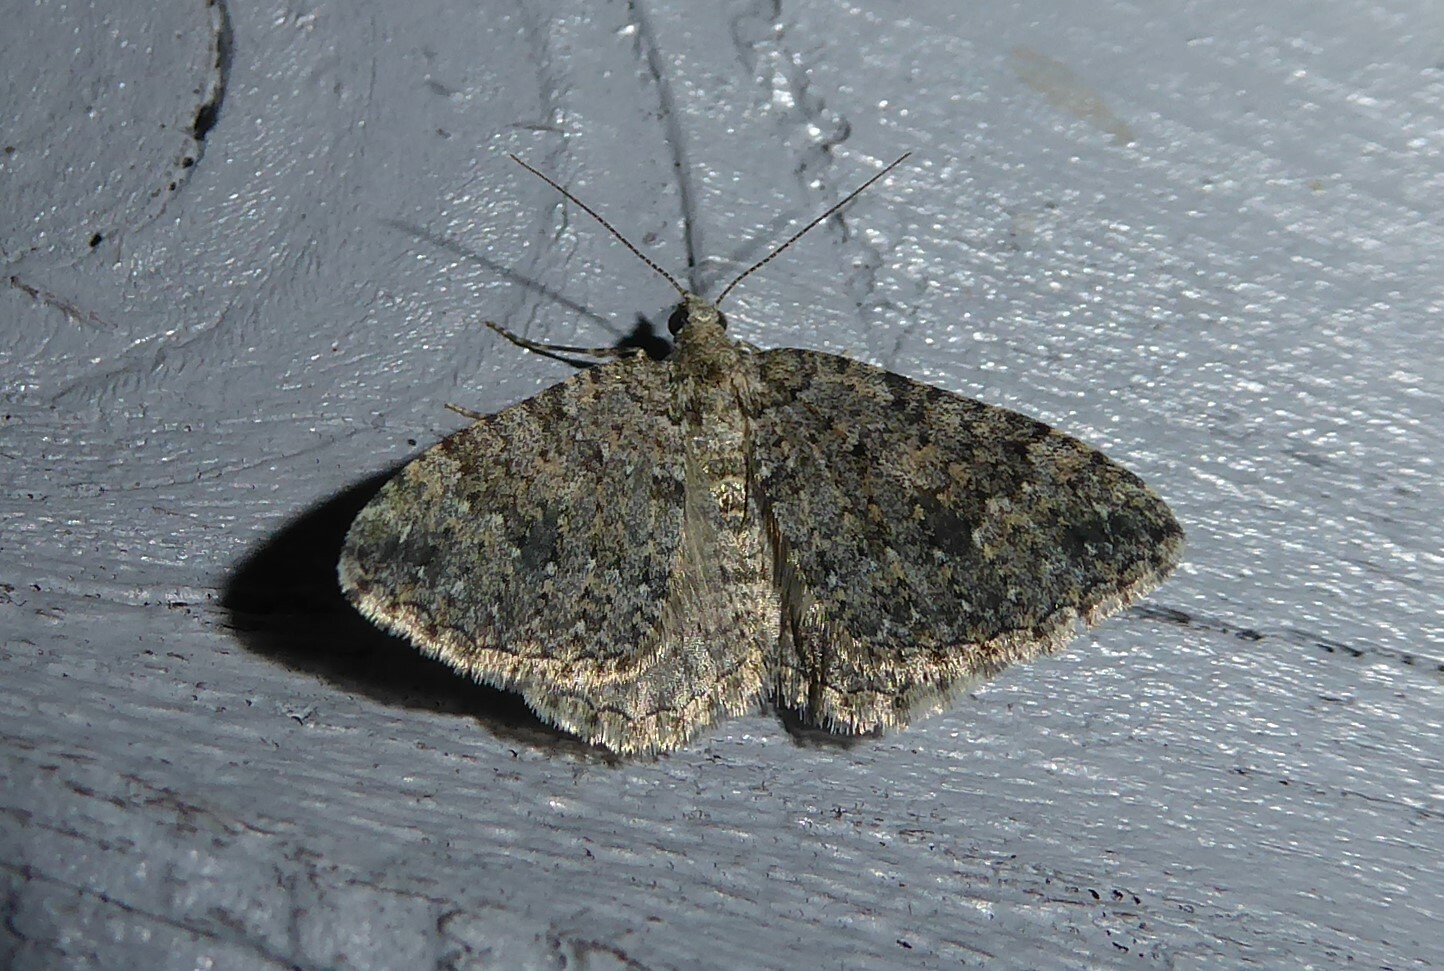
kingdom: Animalia
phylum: Arthropoda
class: Insecta
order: Lepidoptera
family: Geometridae
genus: Helastia
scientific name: Helastia corcularia
